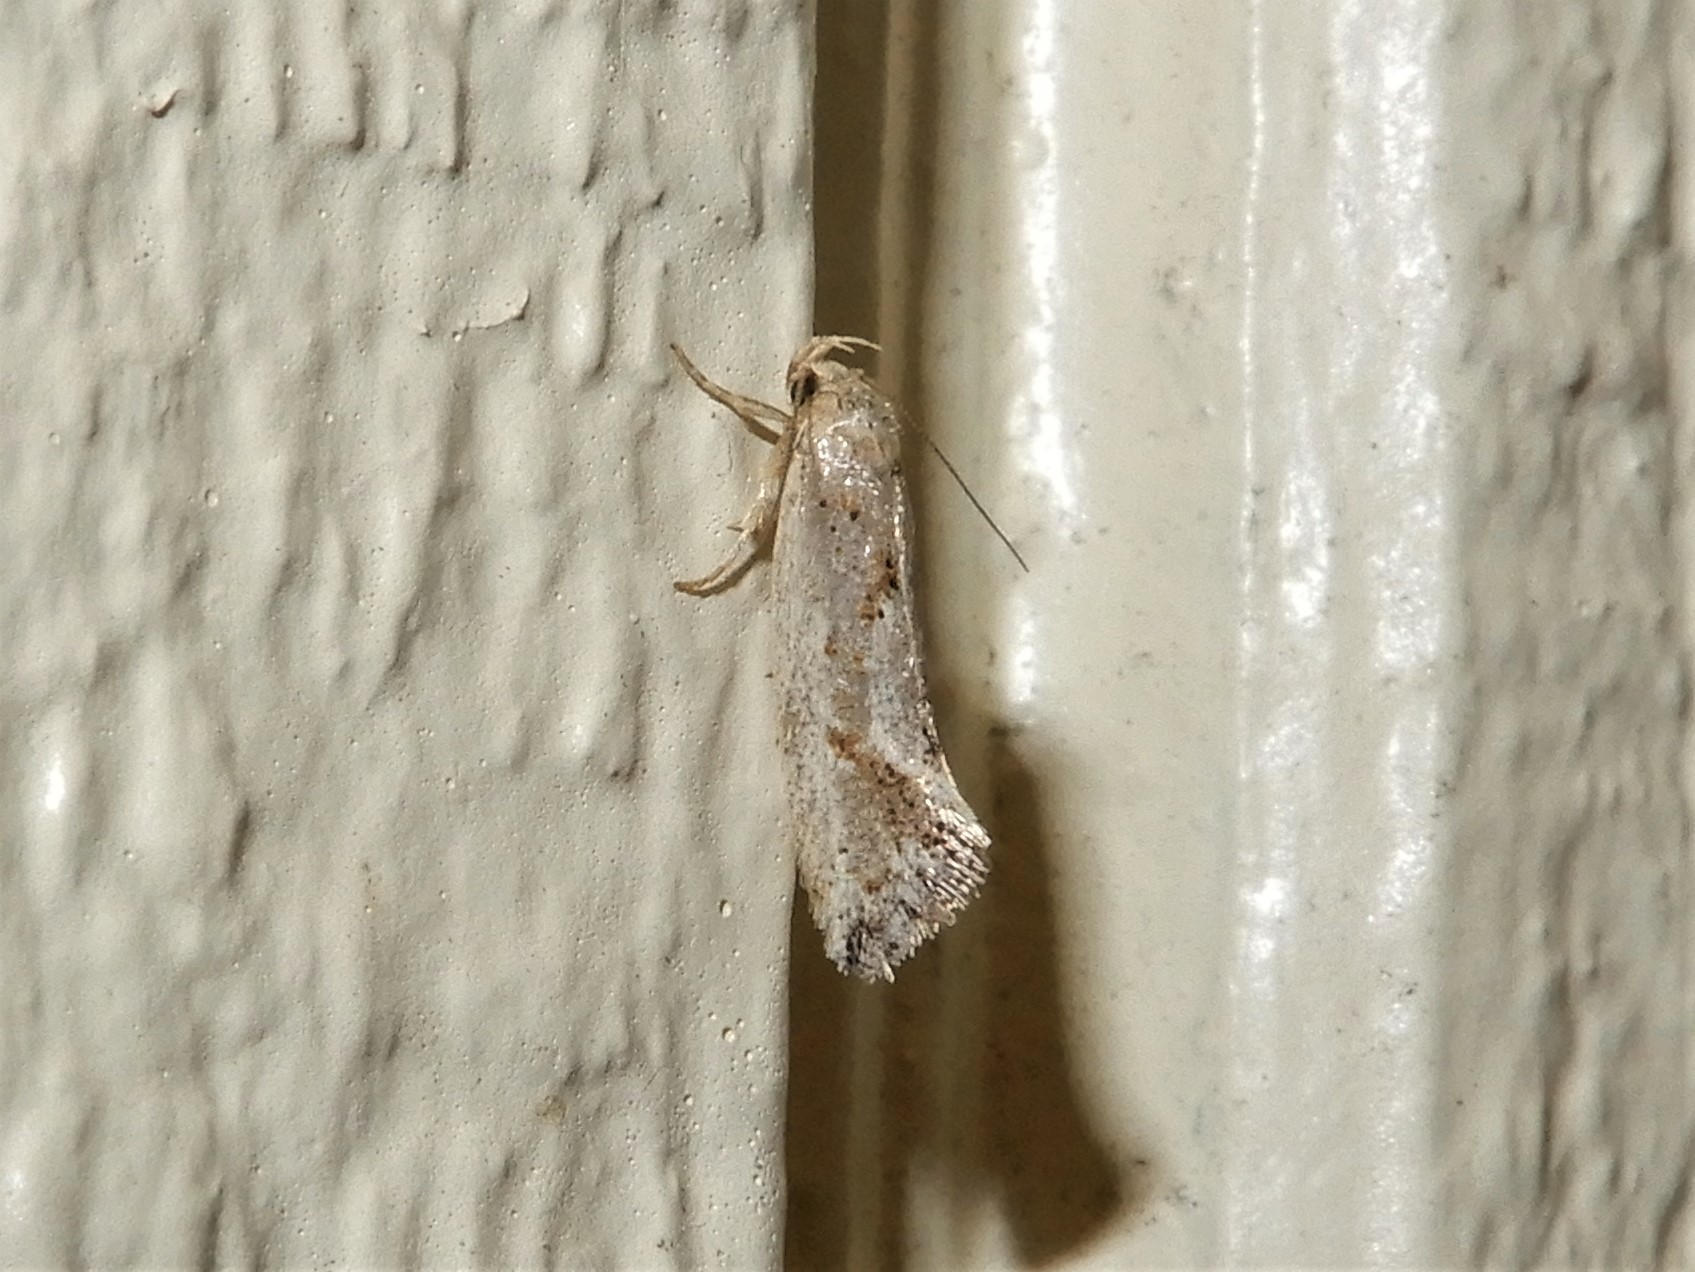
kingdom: Animalia
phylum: Arthropoda
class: Insecta
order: Lepidoptera
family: Oecophoridae
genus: Tingena
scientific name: Tingena hemimochla
